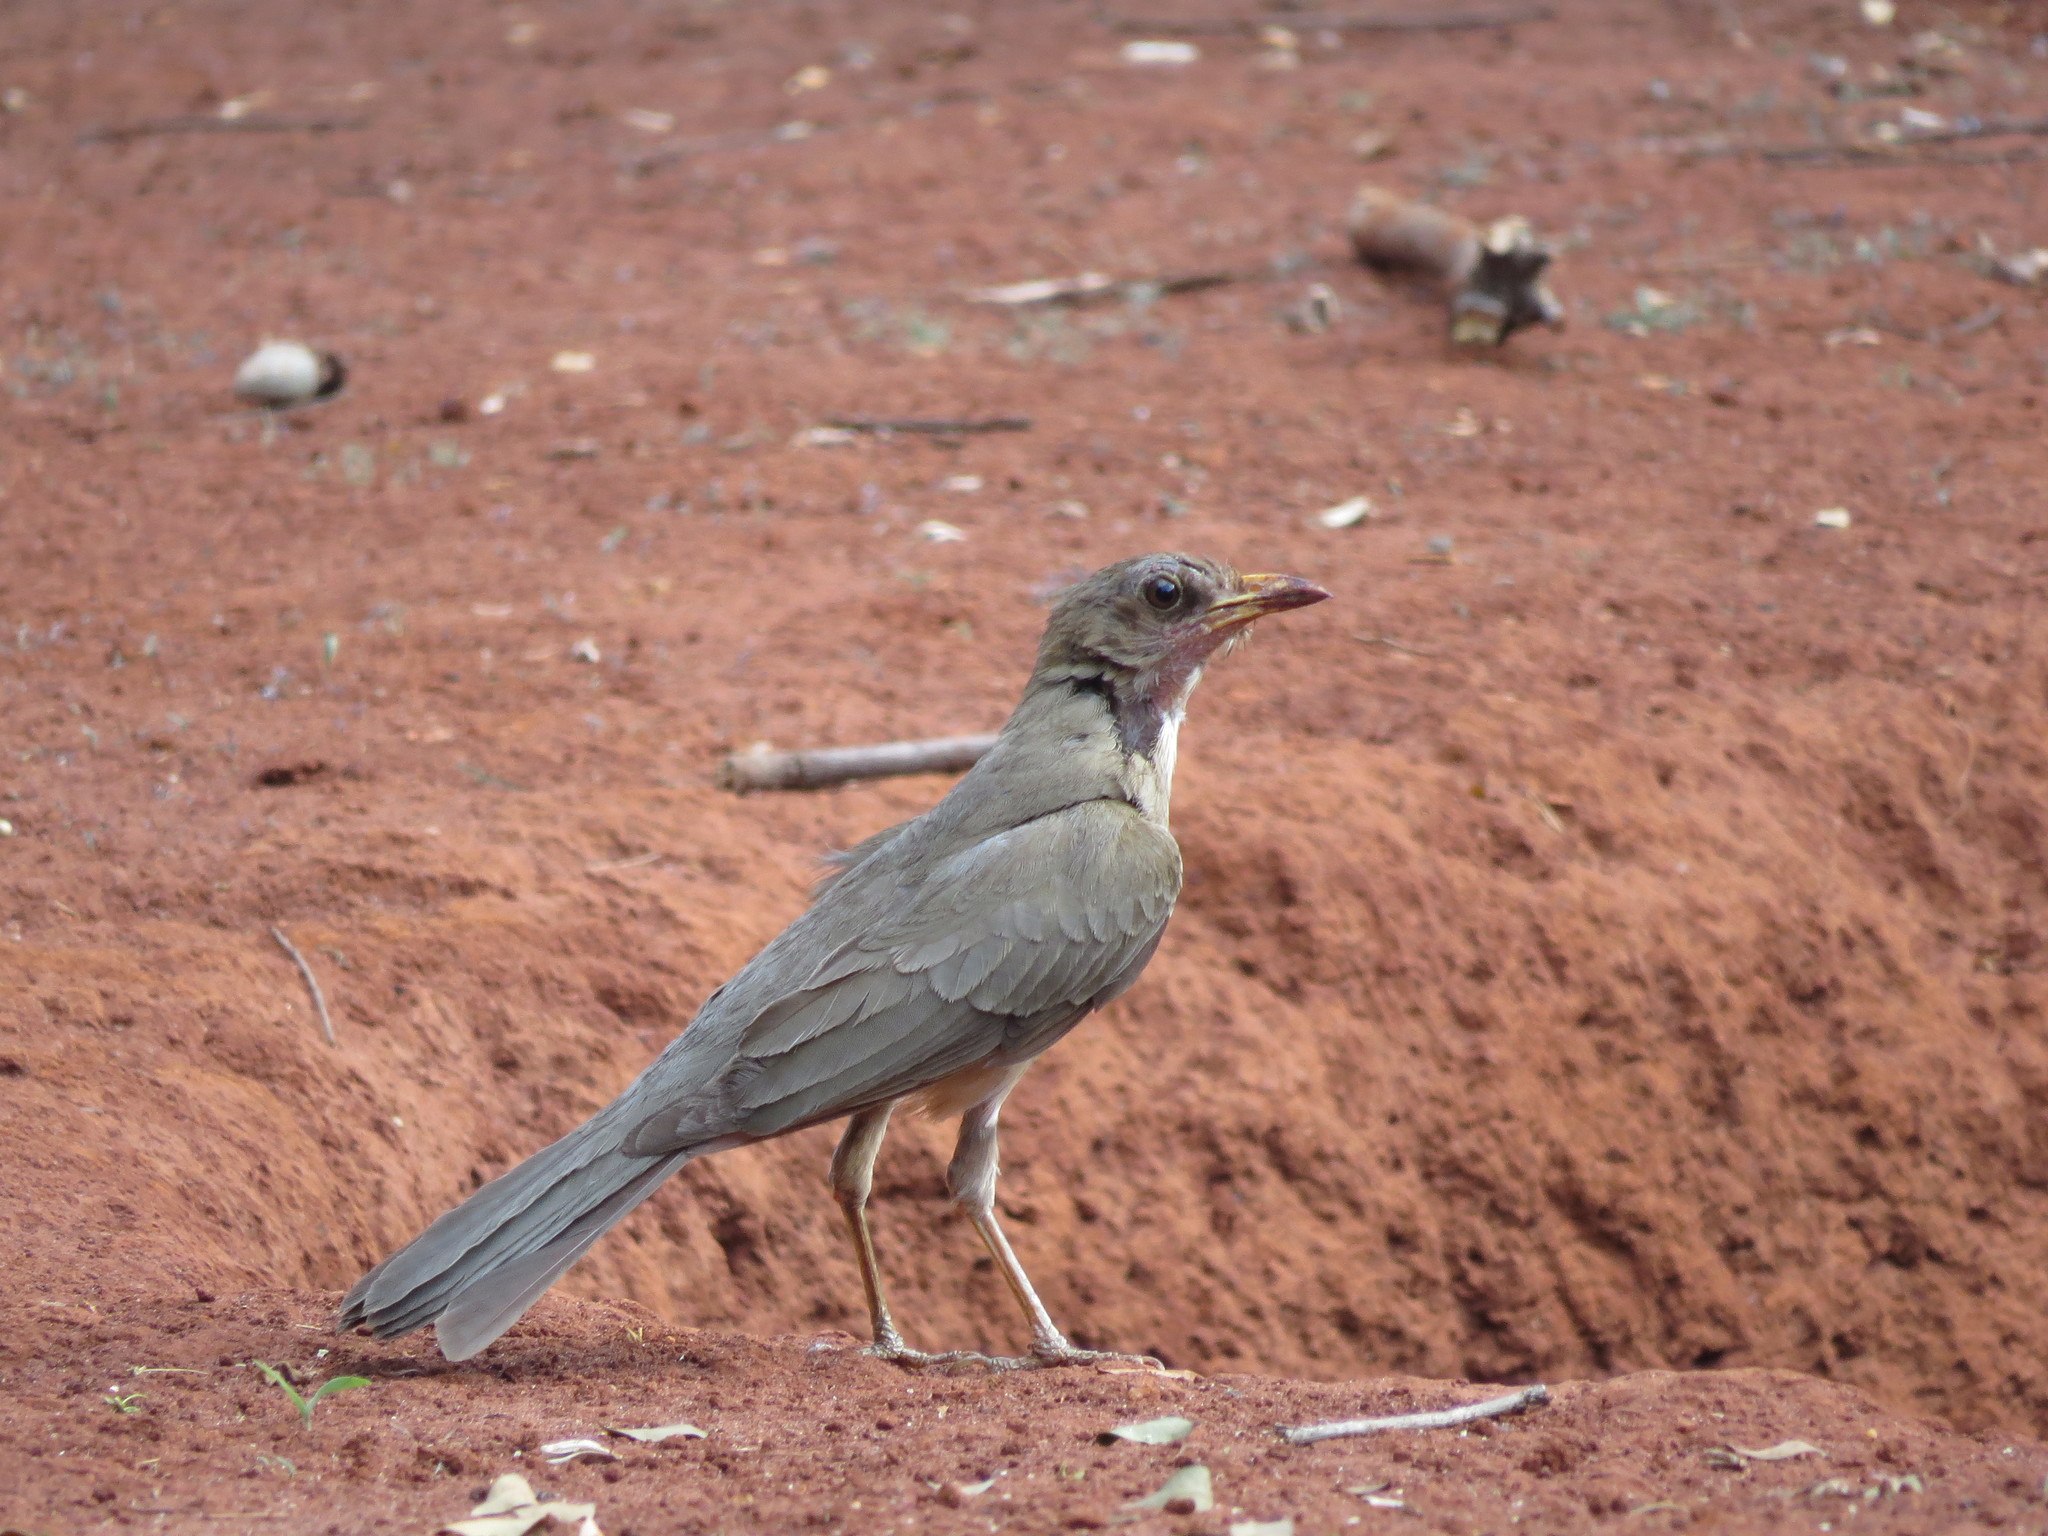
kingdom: Animalia
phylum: Chordata
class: Aves
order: Passeriformes
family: Turdidae
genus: Turdus
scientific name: Turdus amaurochalinus
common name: Creamy-bellied thrush
